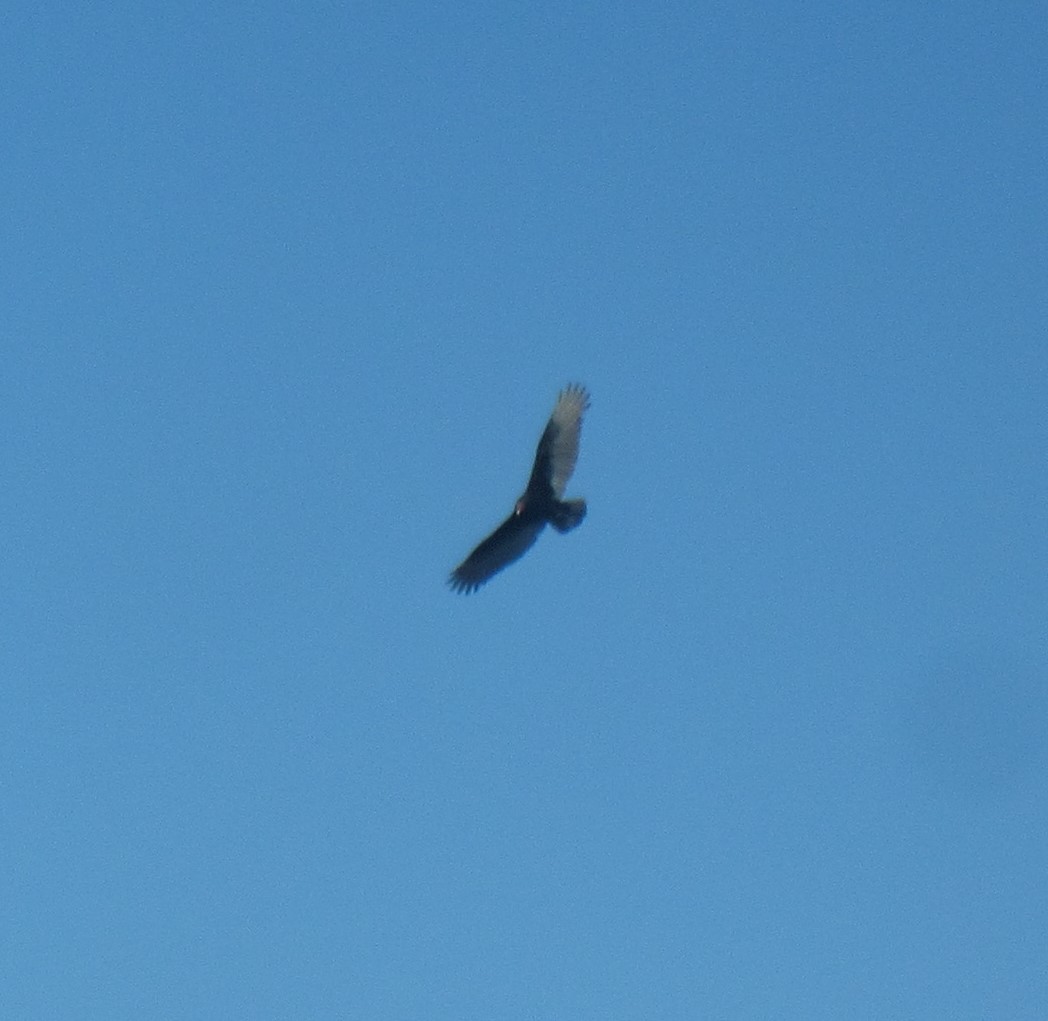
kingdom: Animalia
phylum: Chordata
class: Aves
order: Accipitriformes
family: Cathartidae
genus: Cathartes
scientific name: Cathartes aura
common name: Turkey vulture
